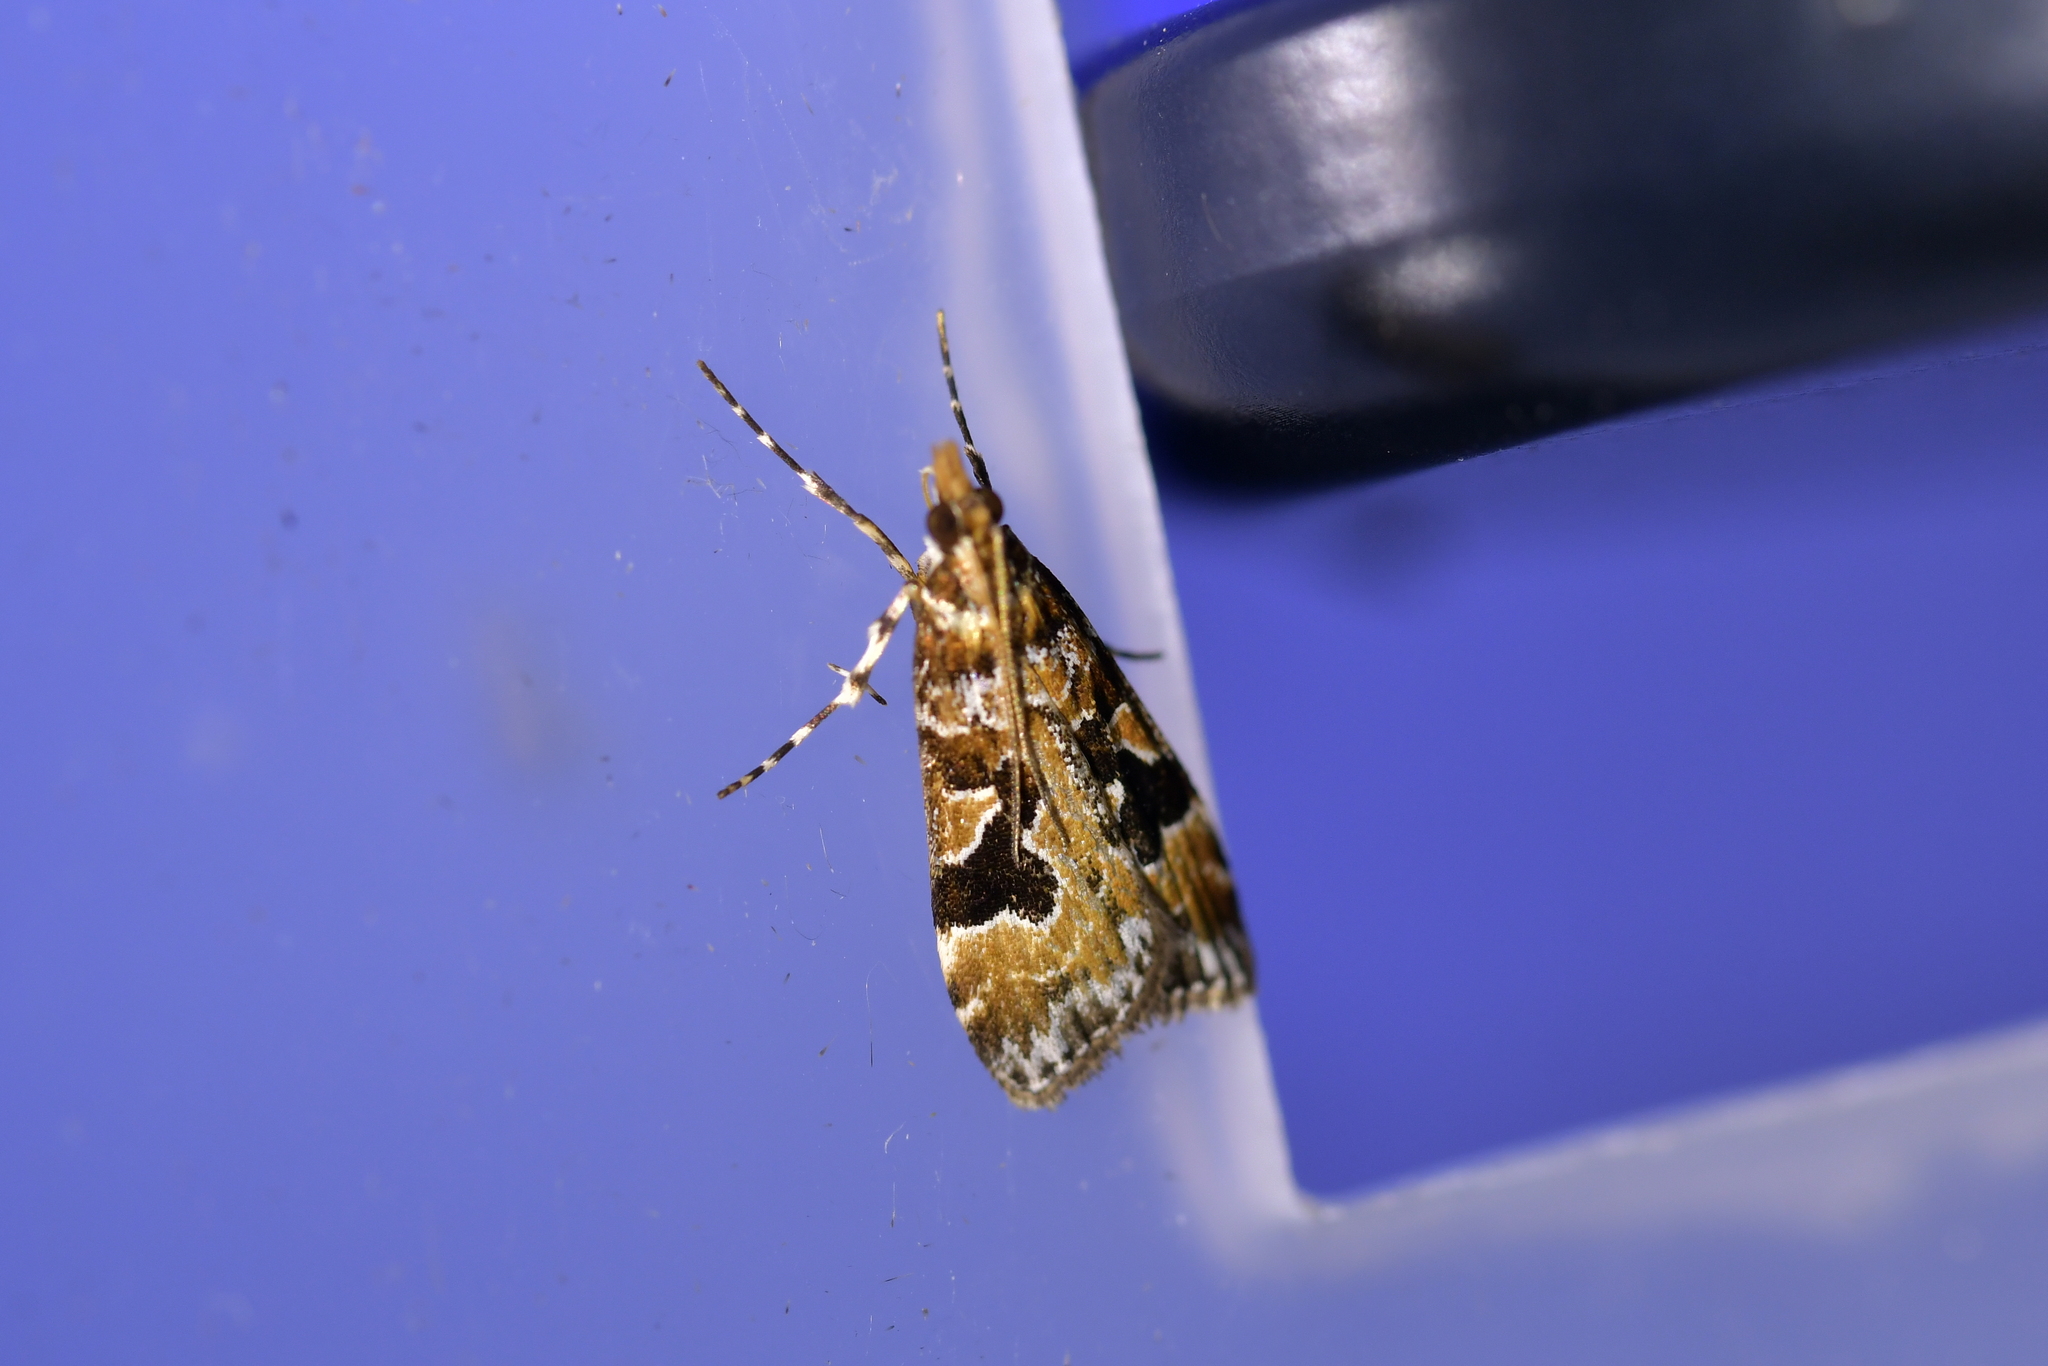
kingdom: Animalia
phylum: Arthropoda
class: Insecta
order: Lepidoptera
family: Crambidae
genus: Scoparia
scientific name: Scoparia ustimacula
